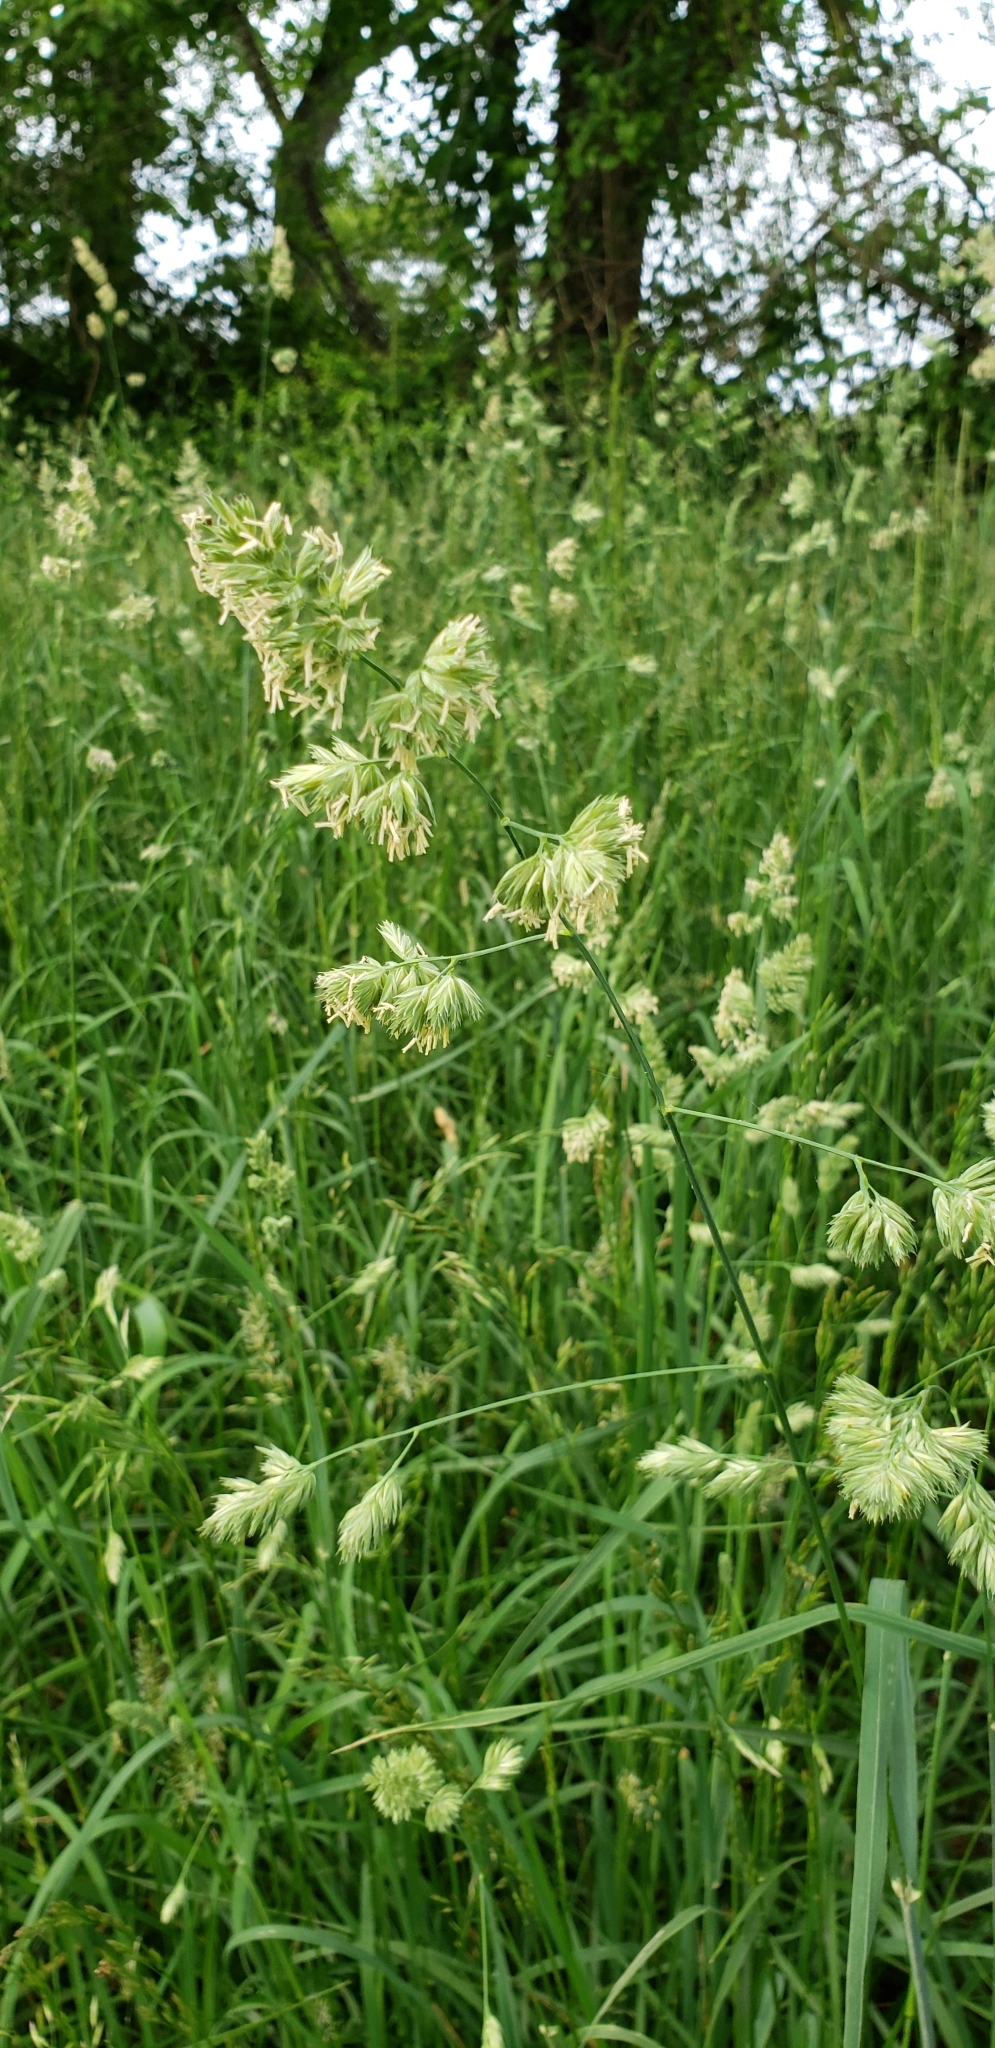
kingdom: Plantae
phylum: Tracheophyta
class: Liliopsida
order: Poales
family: Poaceae
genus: Dactylis
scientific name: Dactylis glomerata
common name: Orchardgrass
